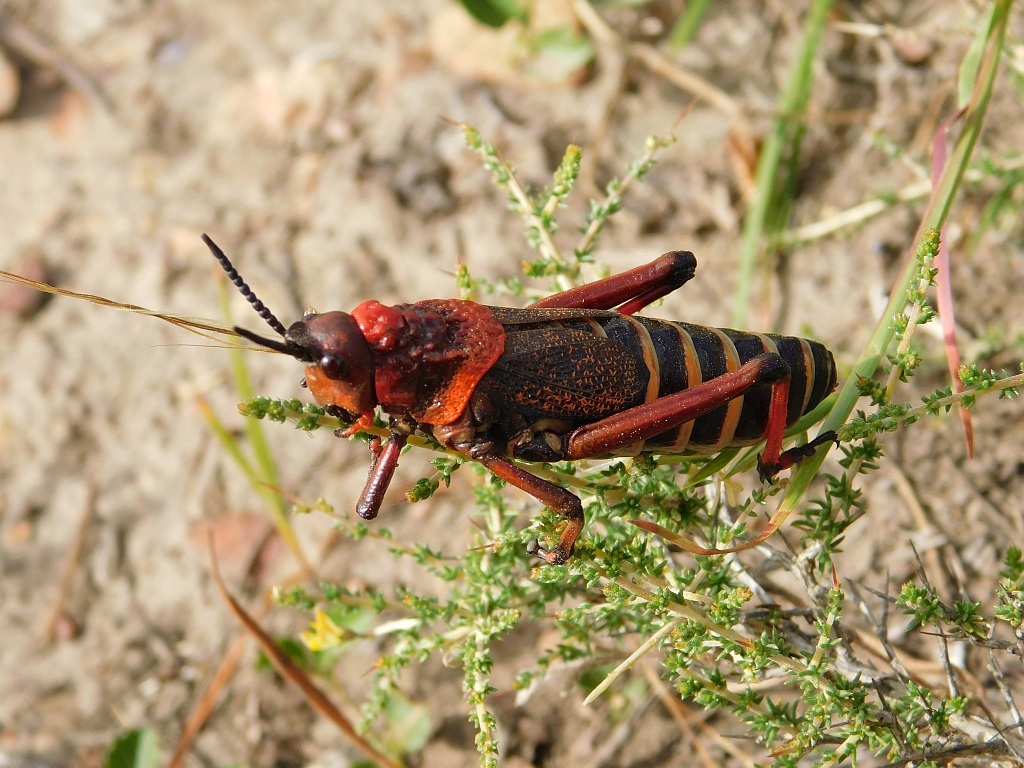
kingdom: Animalia
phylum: Arthropoda
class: Insecta
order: Orthoptera
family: Pyrgomorphidae
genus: Dictyophorus
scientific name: Dictyophorus spumans
